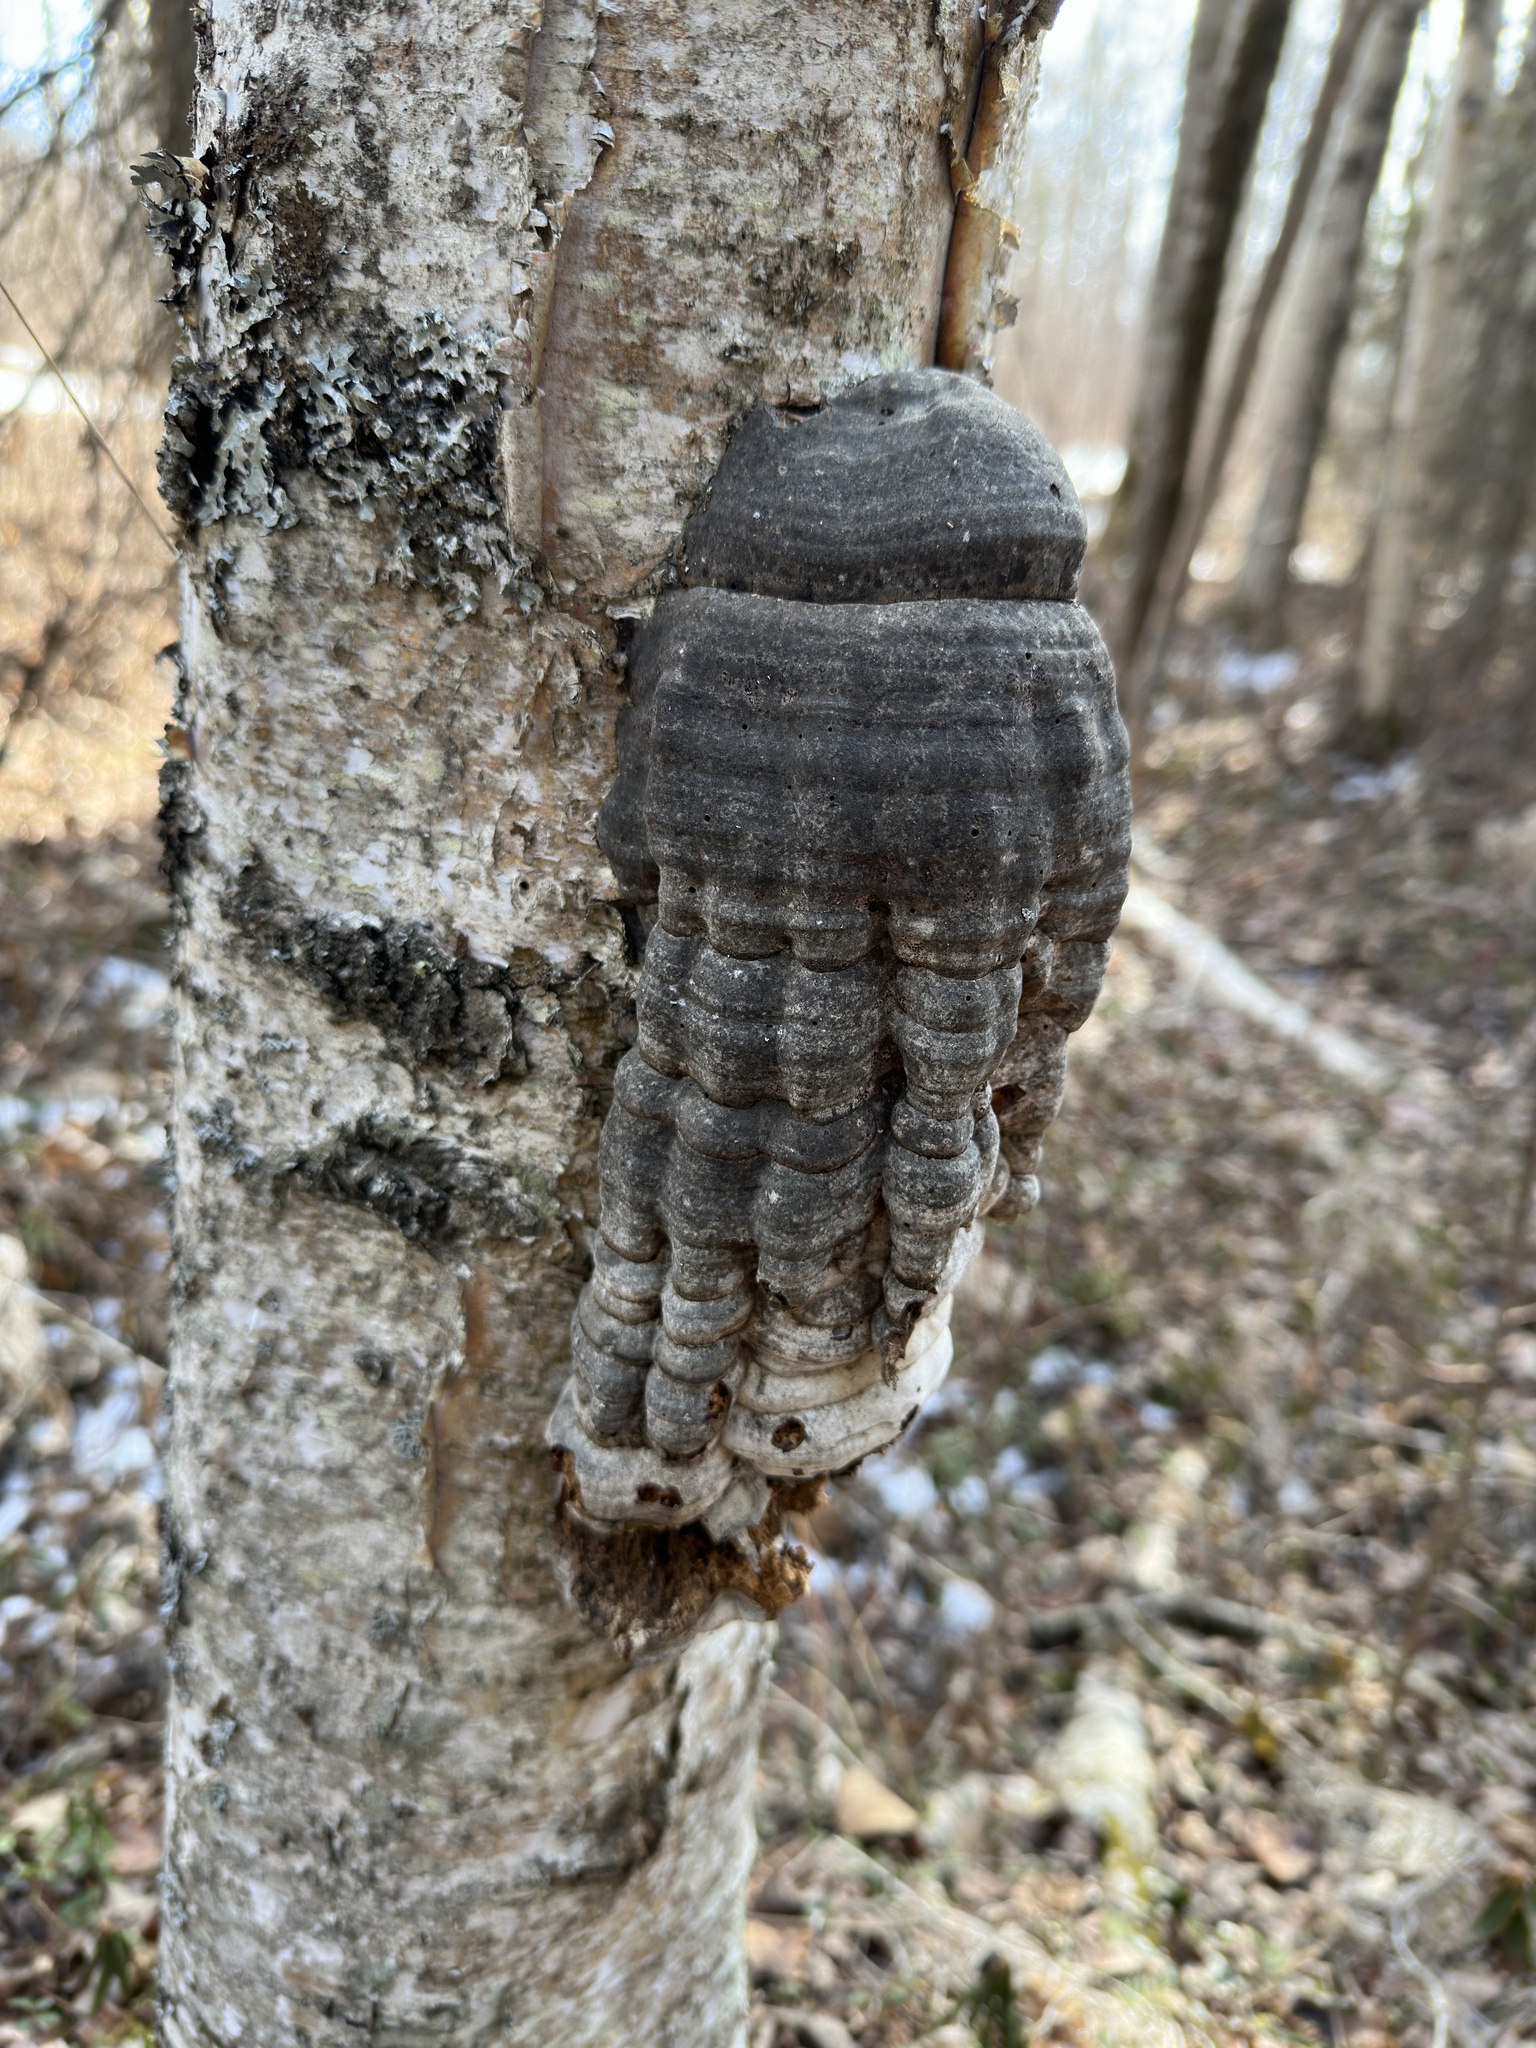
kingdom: Fungi
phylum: Basidiomycota
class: Agaricomycetes
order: Polyporales
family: Polyporaceae
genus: Fomes
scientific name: Fomes fomentarius
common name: Hoof fungus
